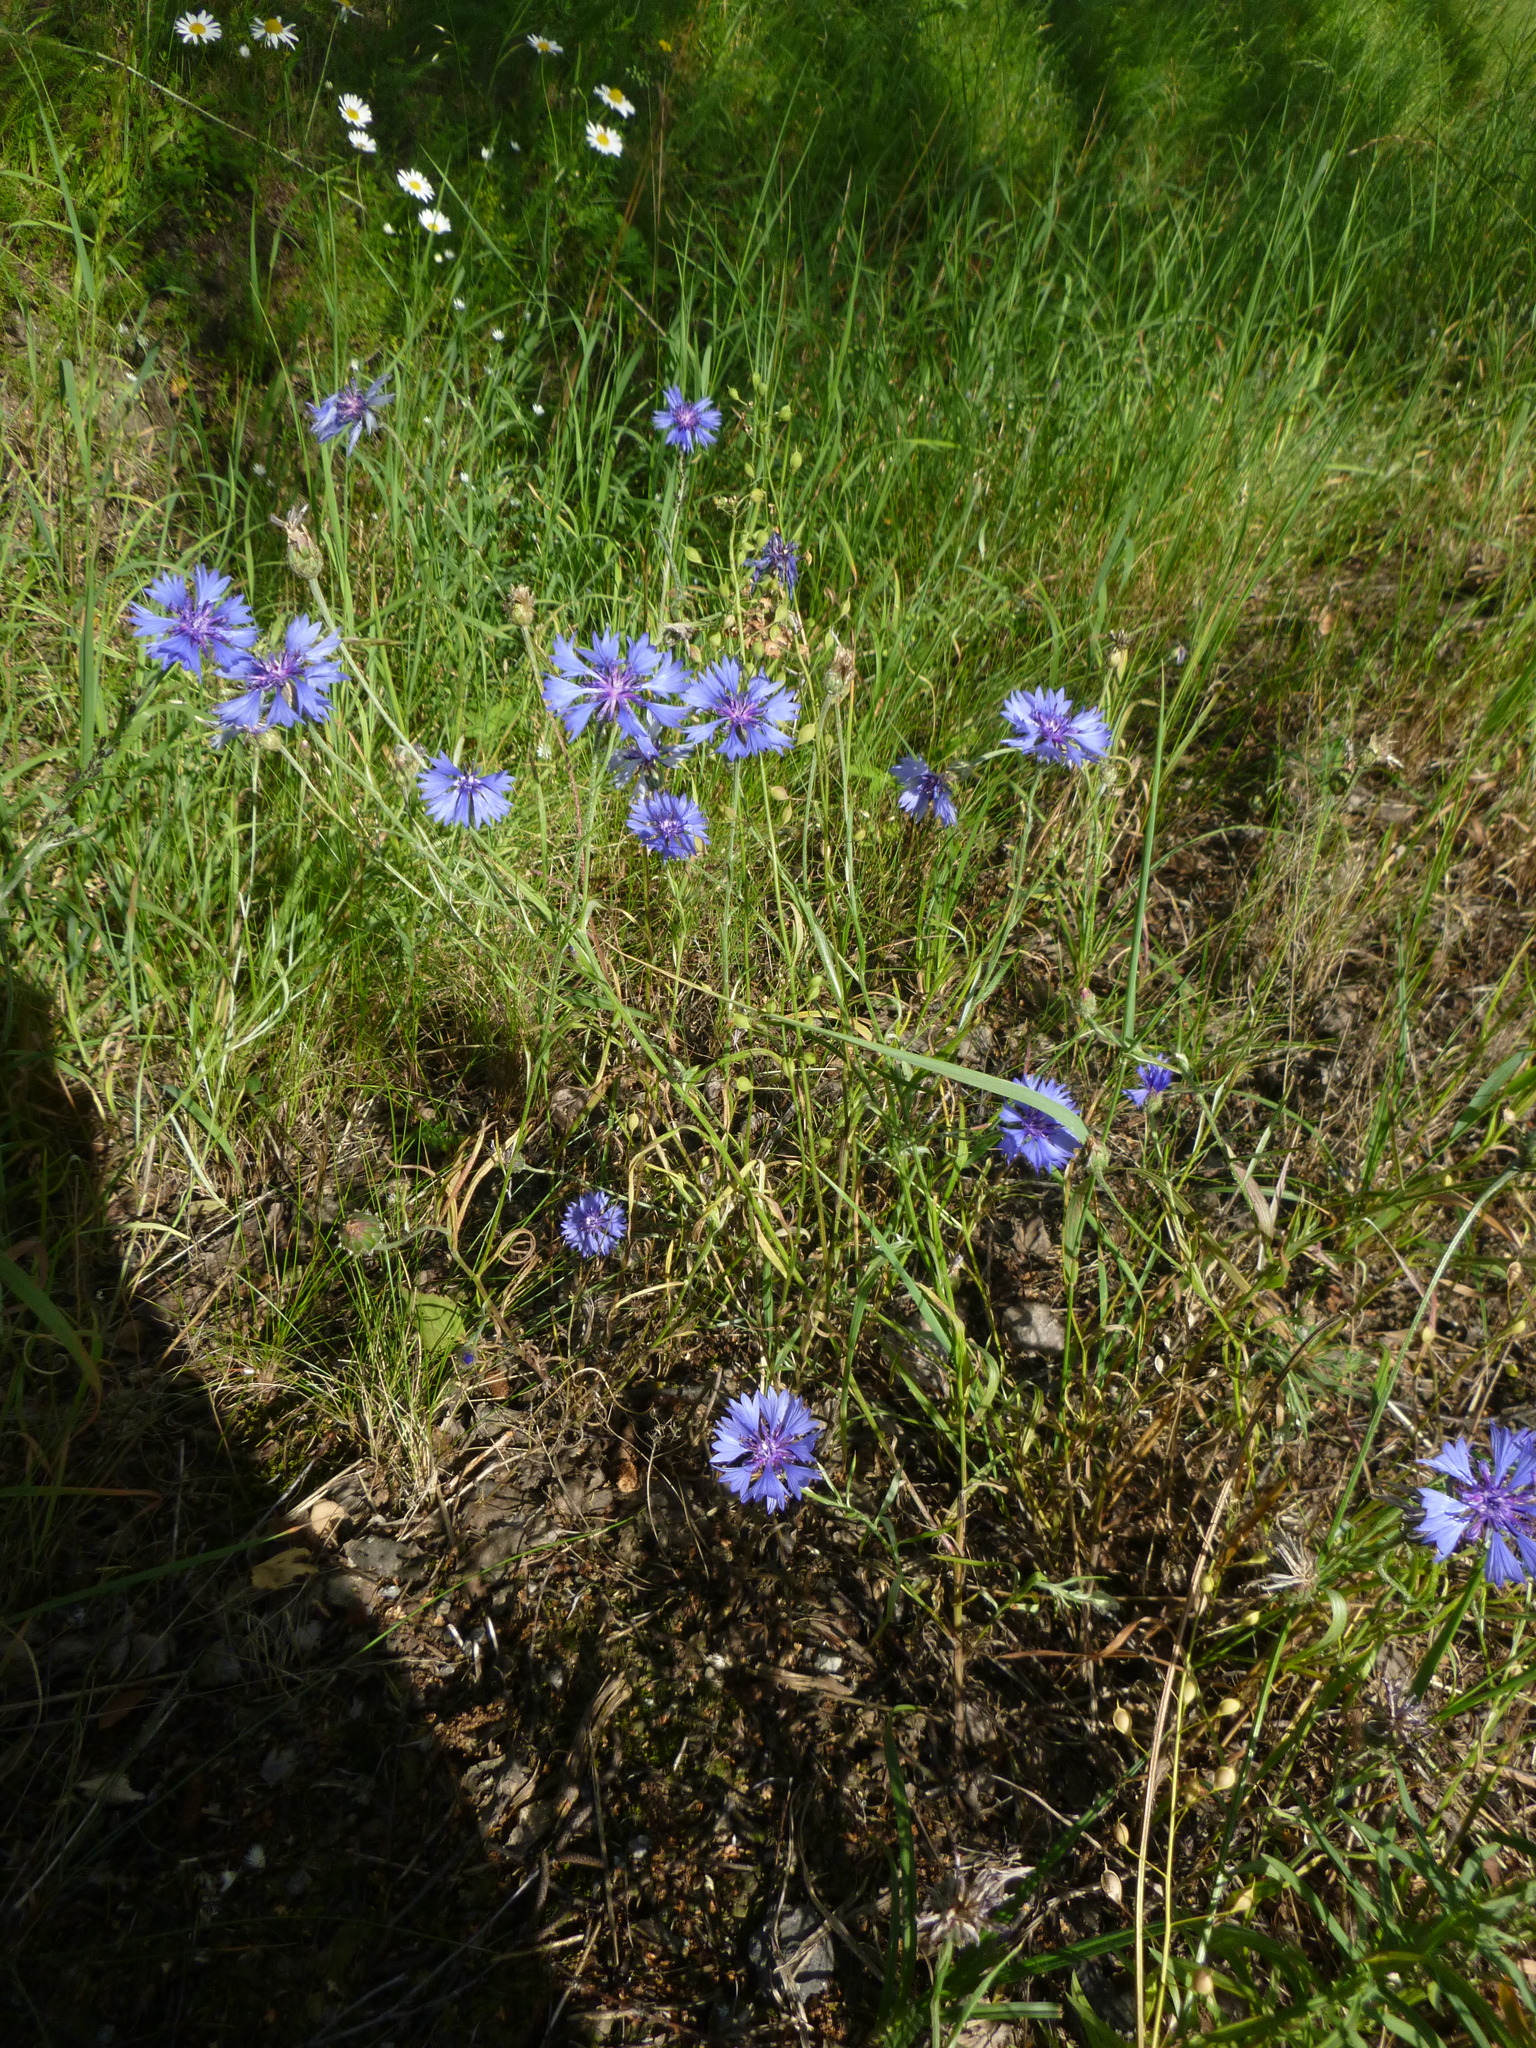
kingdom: Plantae
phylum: Tracheophyta
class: Magnoliopsida
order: Asterales
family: Asteraceae
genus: Centaurea
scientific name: Centaurea cyanus
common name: Cornflower
